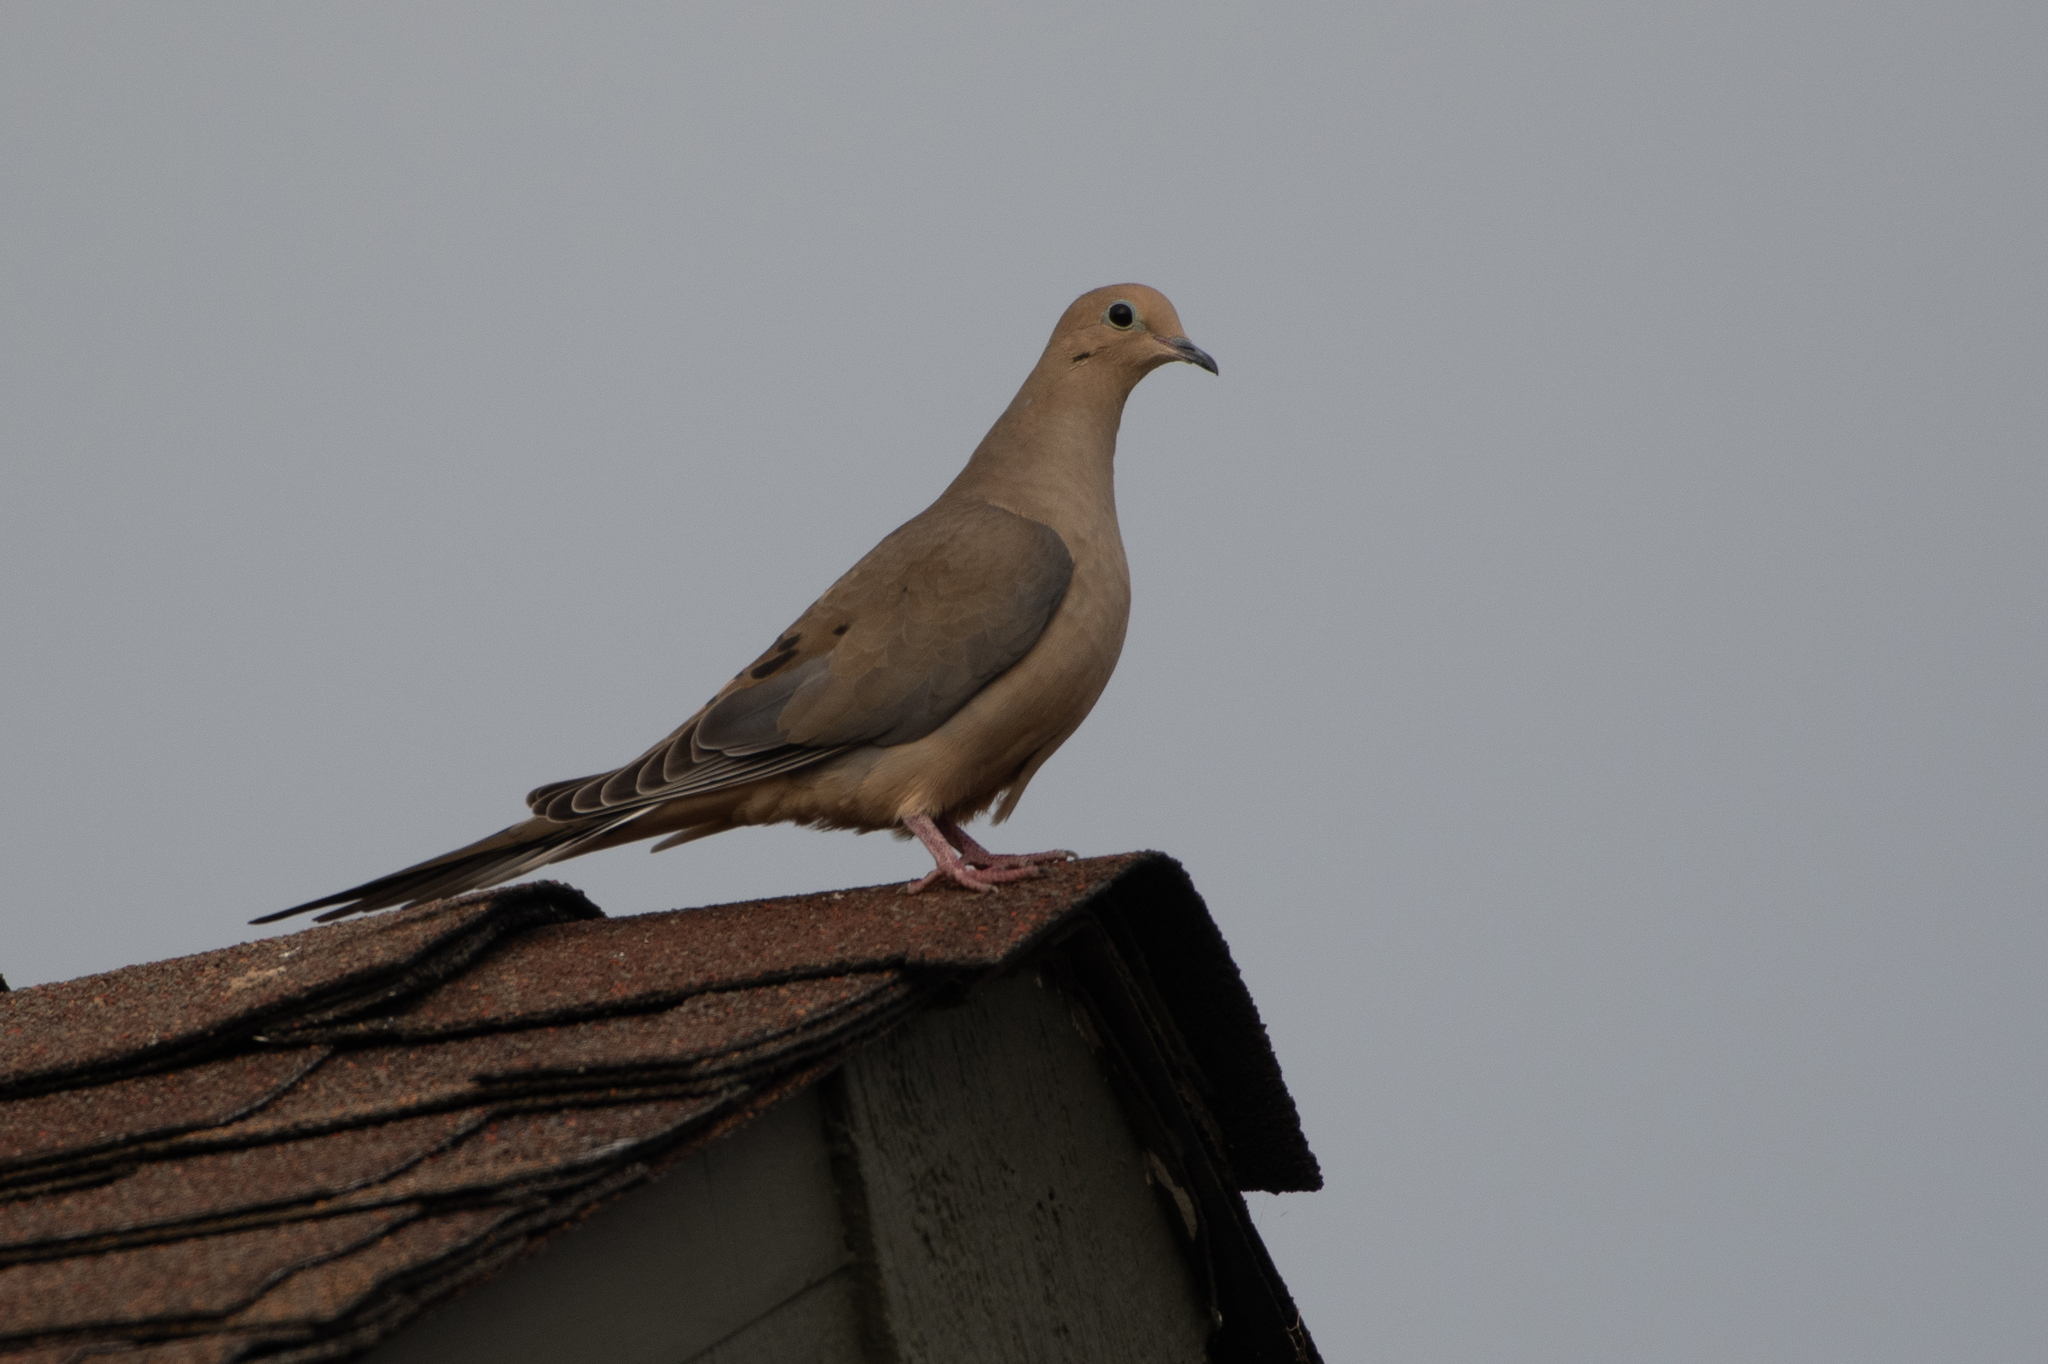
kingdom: Animalia
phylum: Chordata
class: Aves
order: Columbiformes
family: Columbidae
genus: Zenaida
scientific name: Zenaida macroura
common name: Mourning dove
